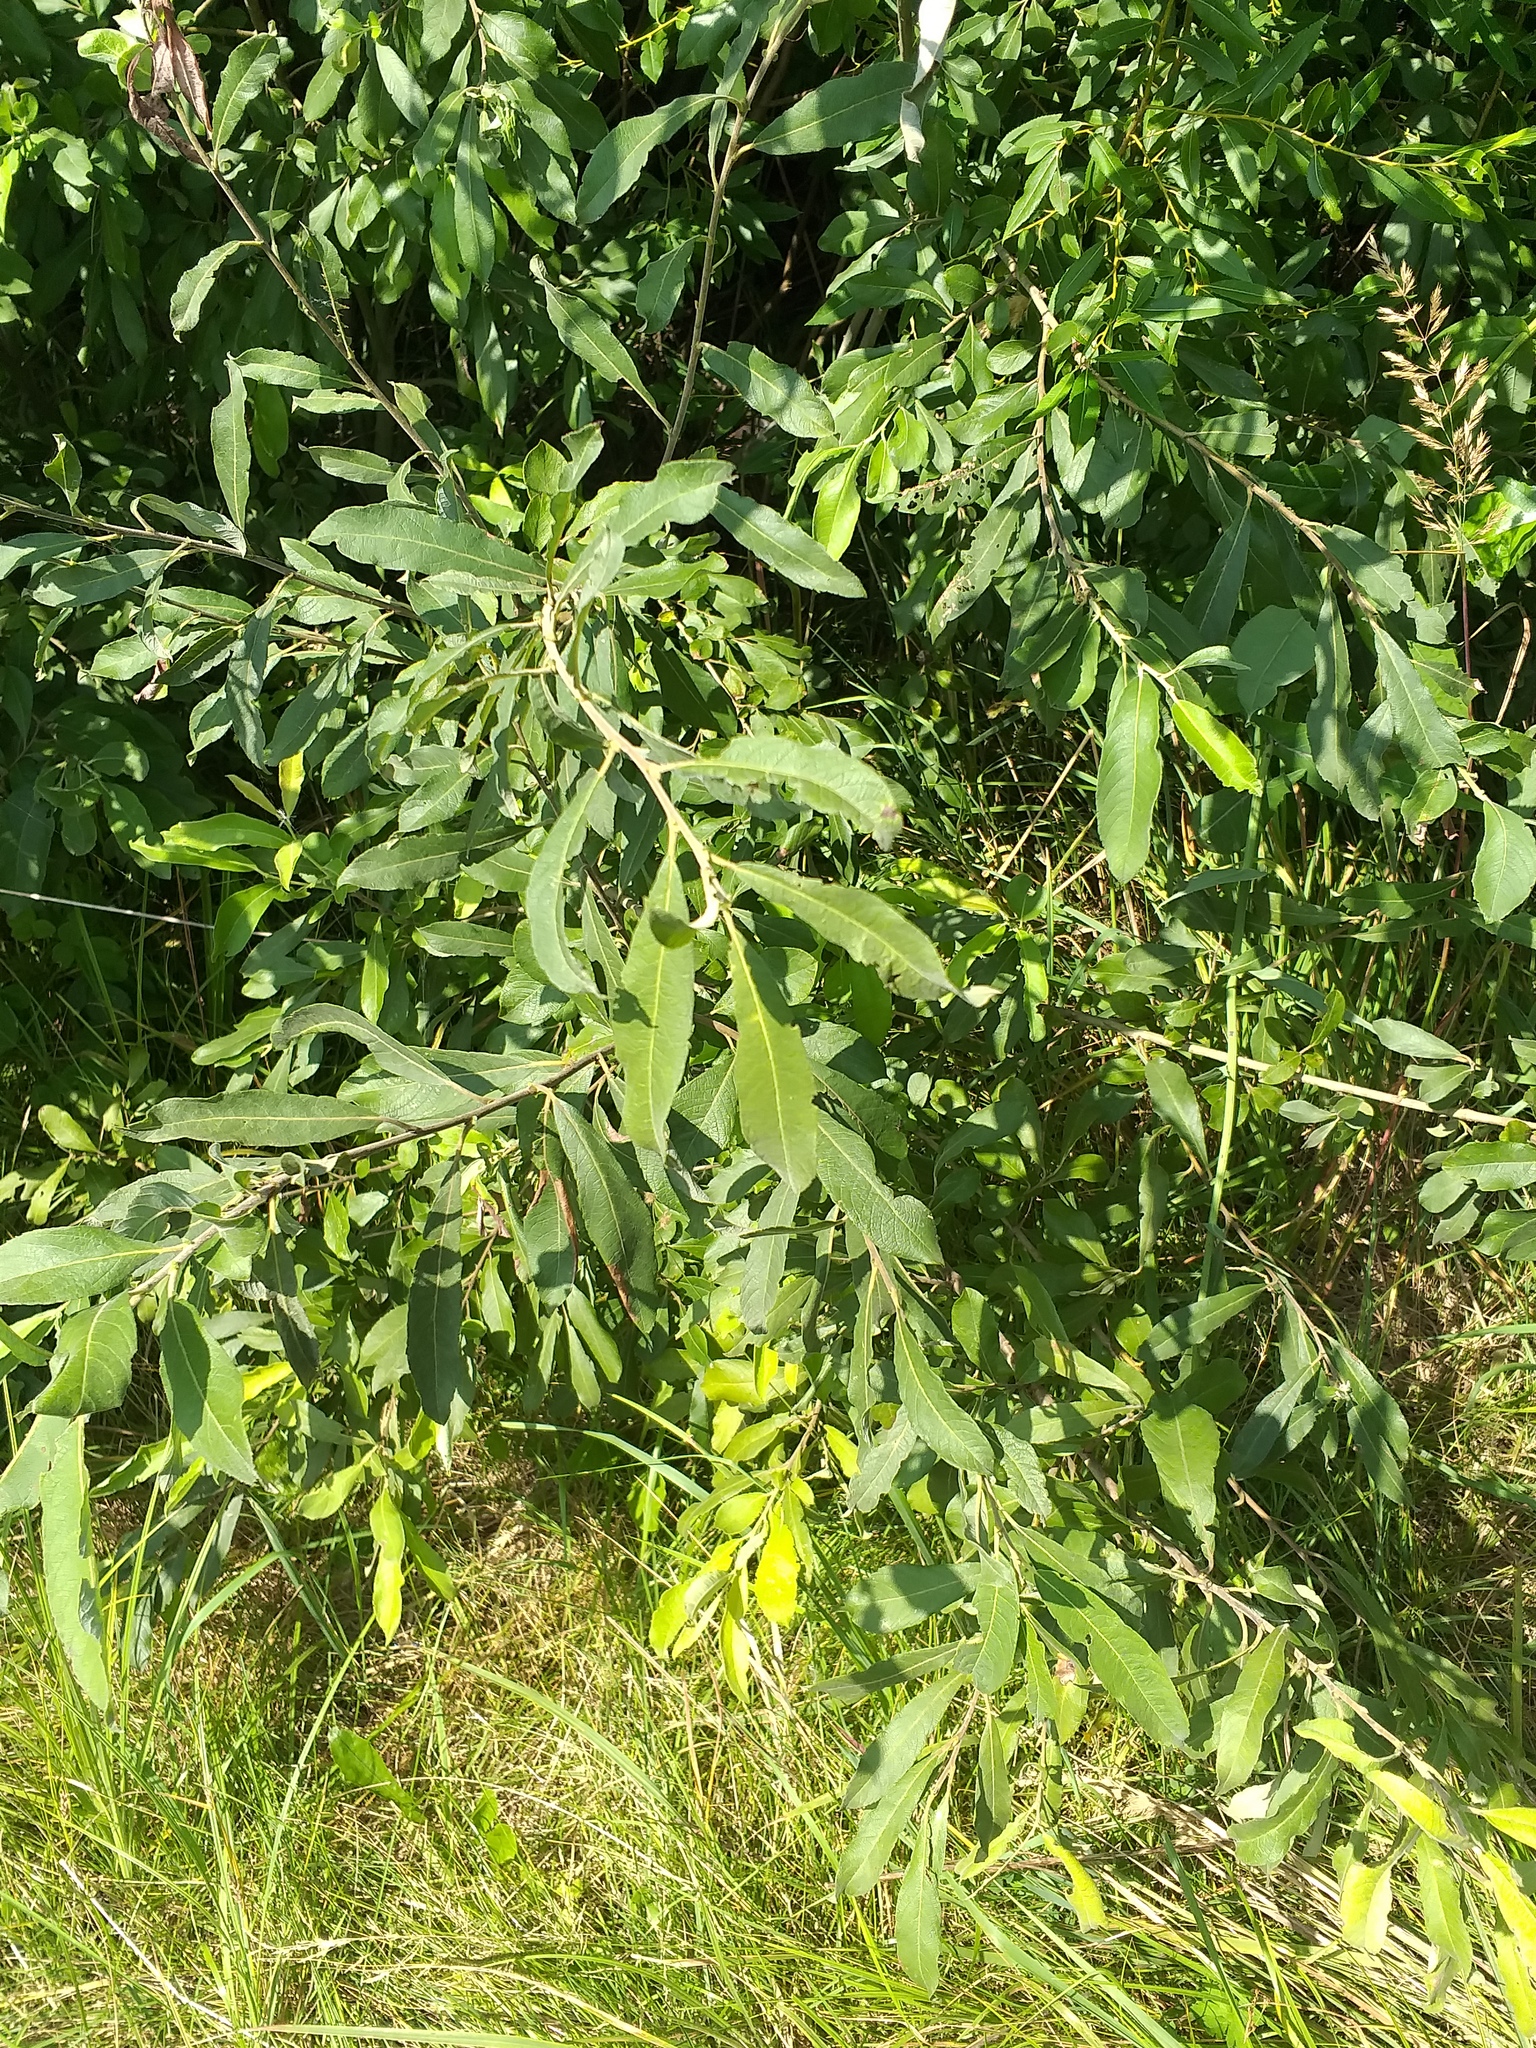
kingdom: Plantae
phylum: Tracheophyta
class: Magnoliopsida
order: Malpighiales
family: Salicaceae
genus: Salix
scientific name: Salix cinerea
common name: Common sallow
